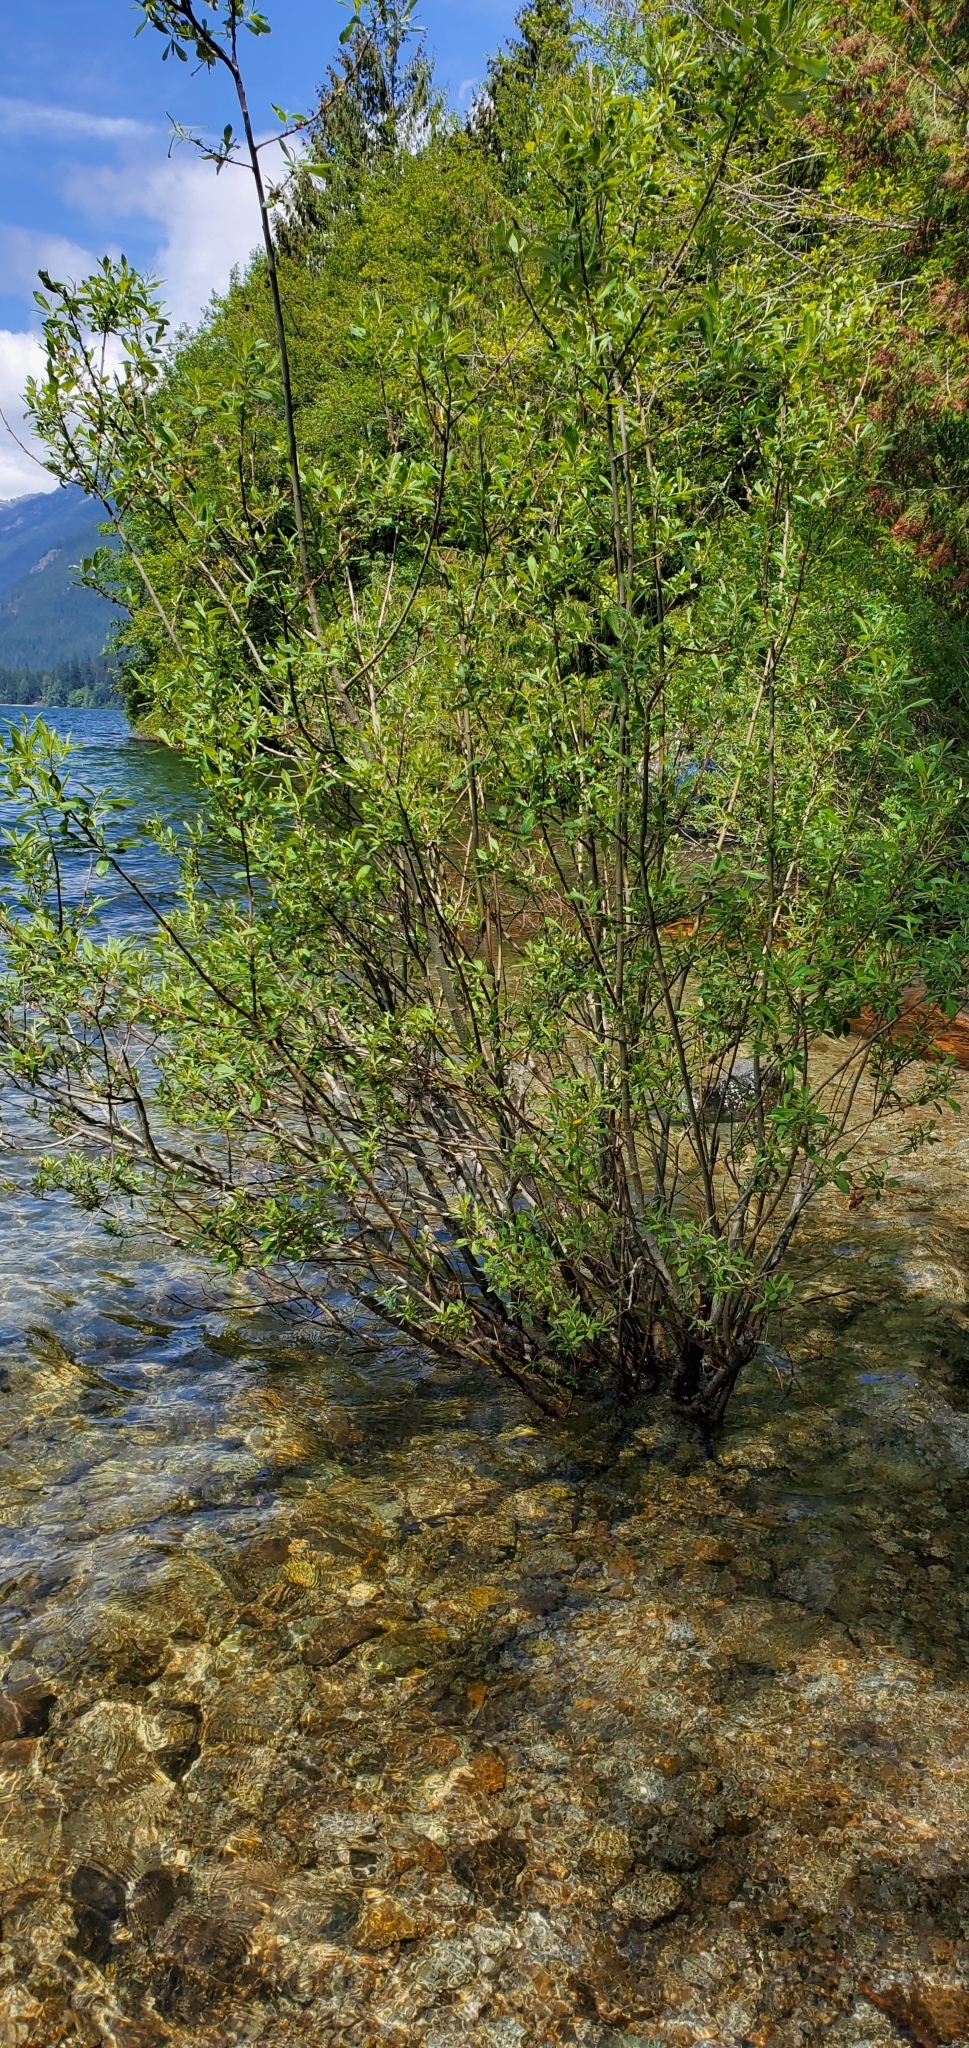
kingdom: Plantae
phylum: Tracheophyta
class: Magnoliopsida
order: Malpighiales
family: Salicaceae
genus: Salix
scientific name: Salix scouleriana
